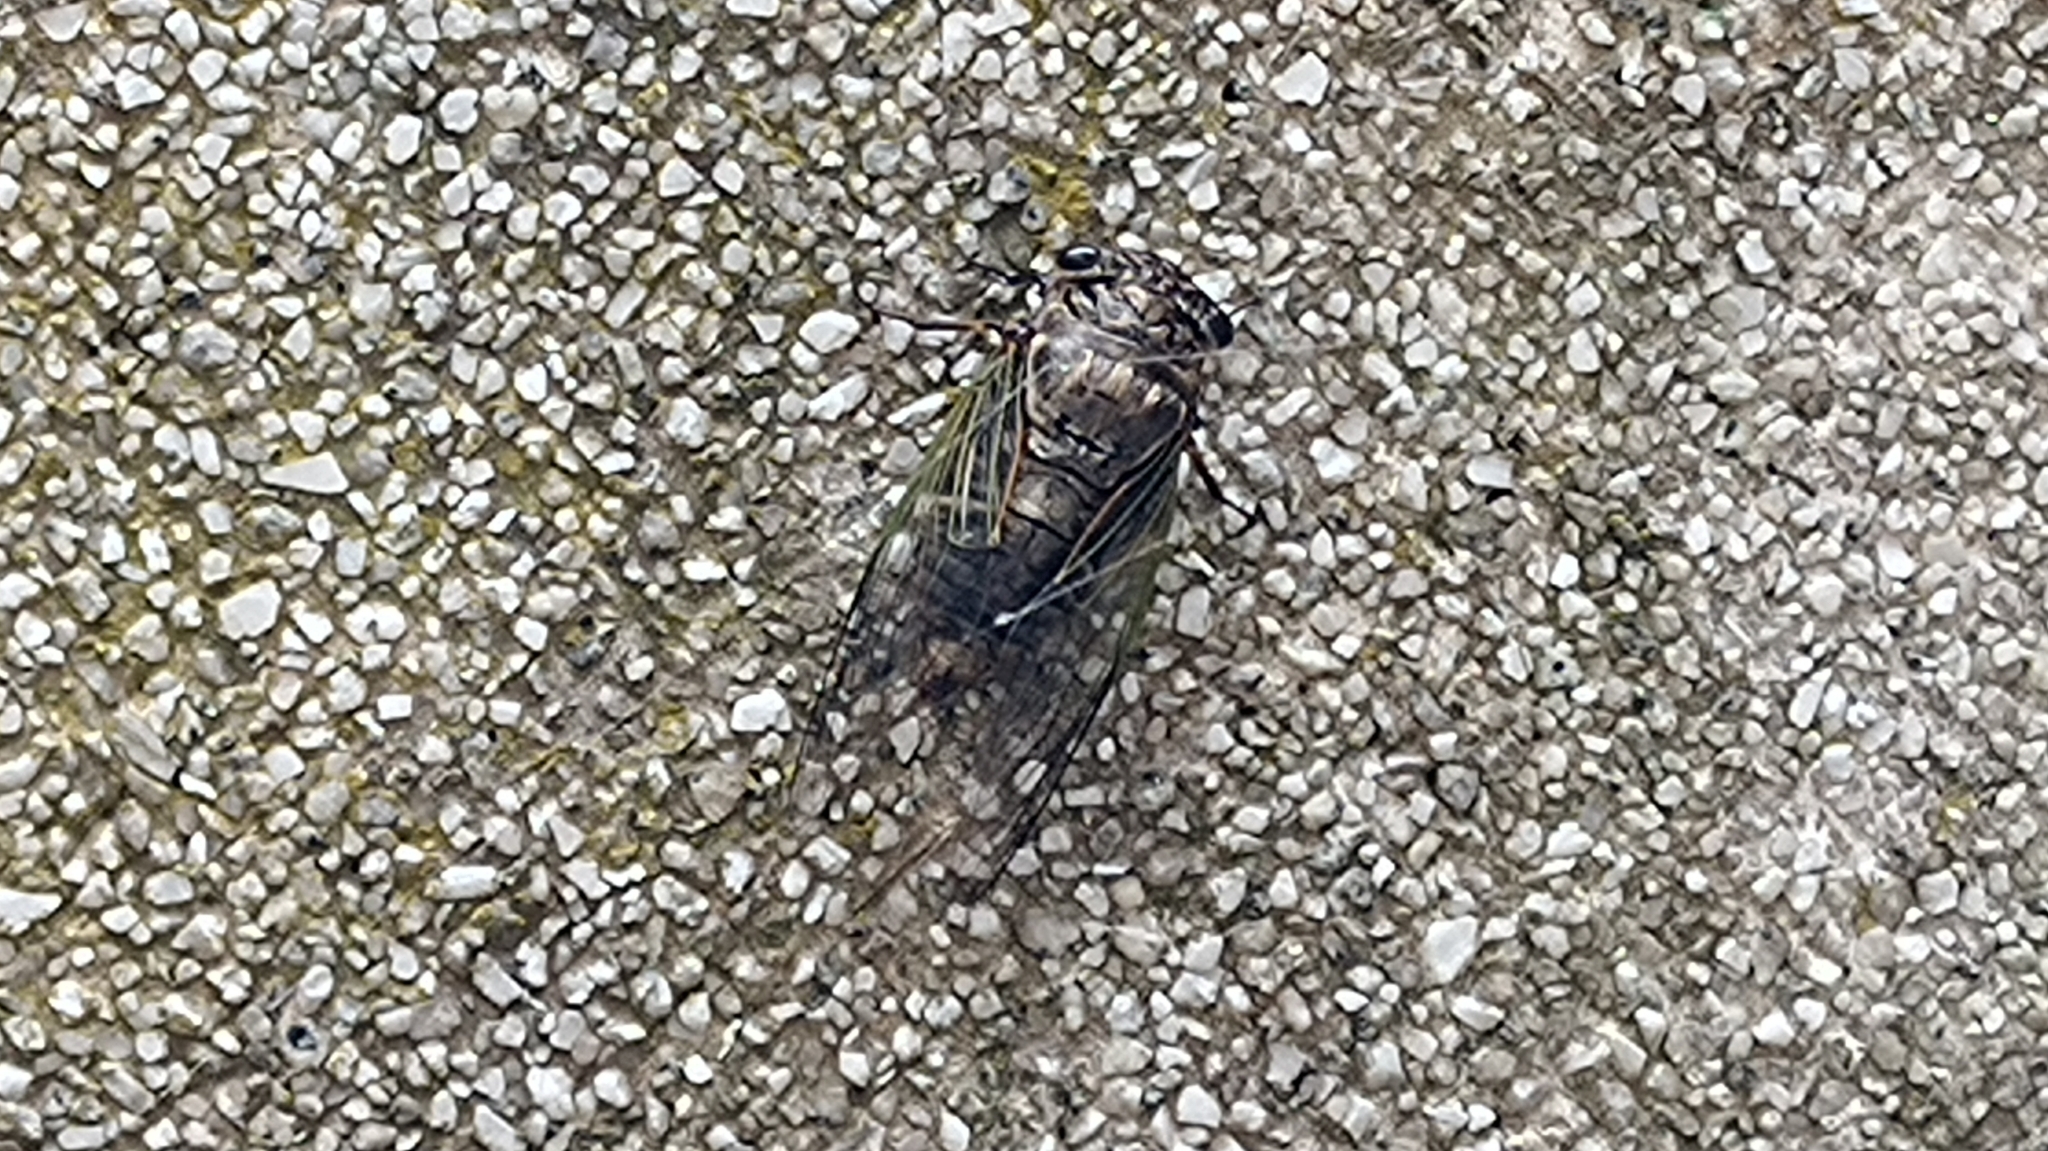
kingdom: Animalia
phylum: Arthropoda
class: Insecta
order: Hemiptera
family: Cicadidae
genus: Cryptotympana
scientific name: Cryptotympana facialis
